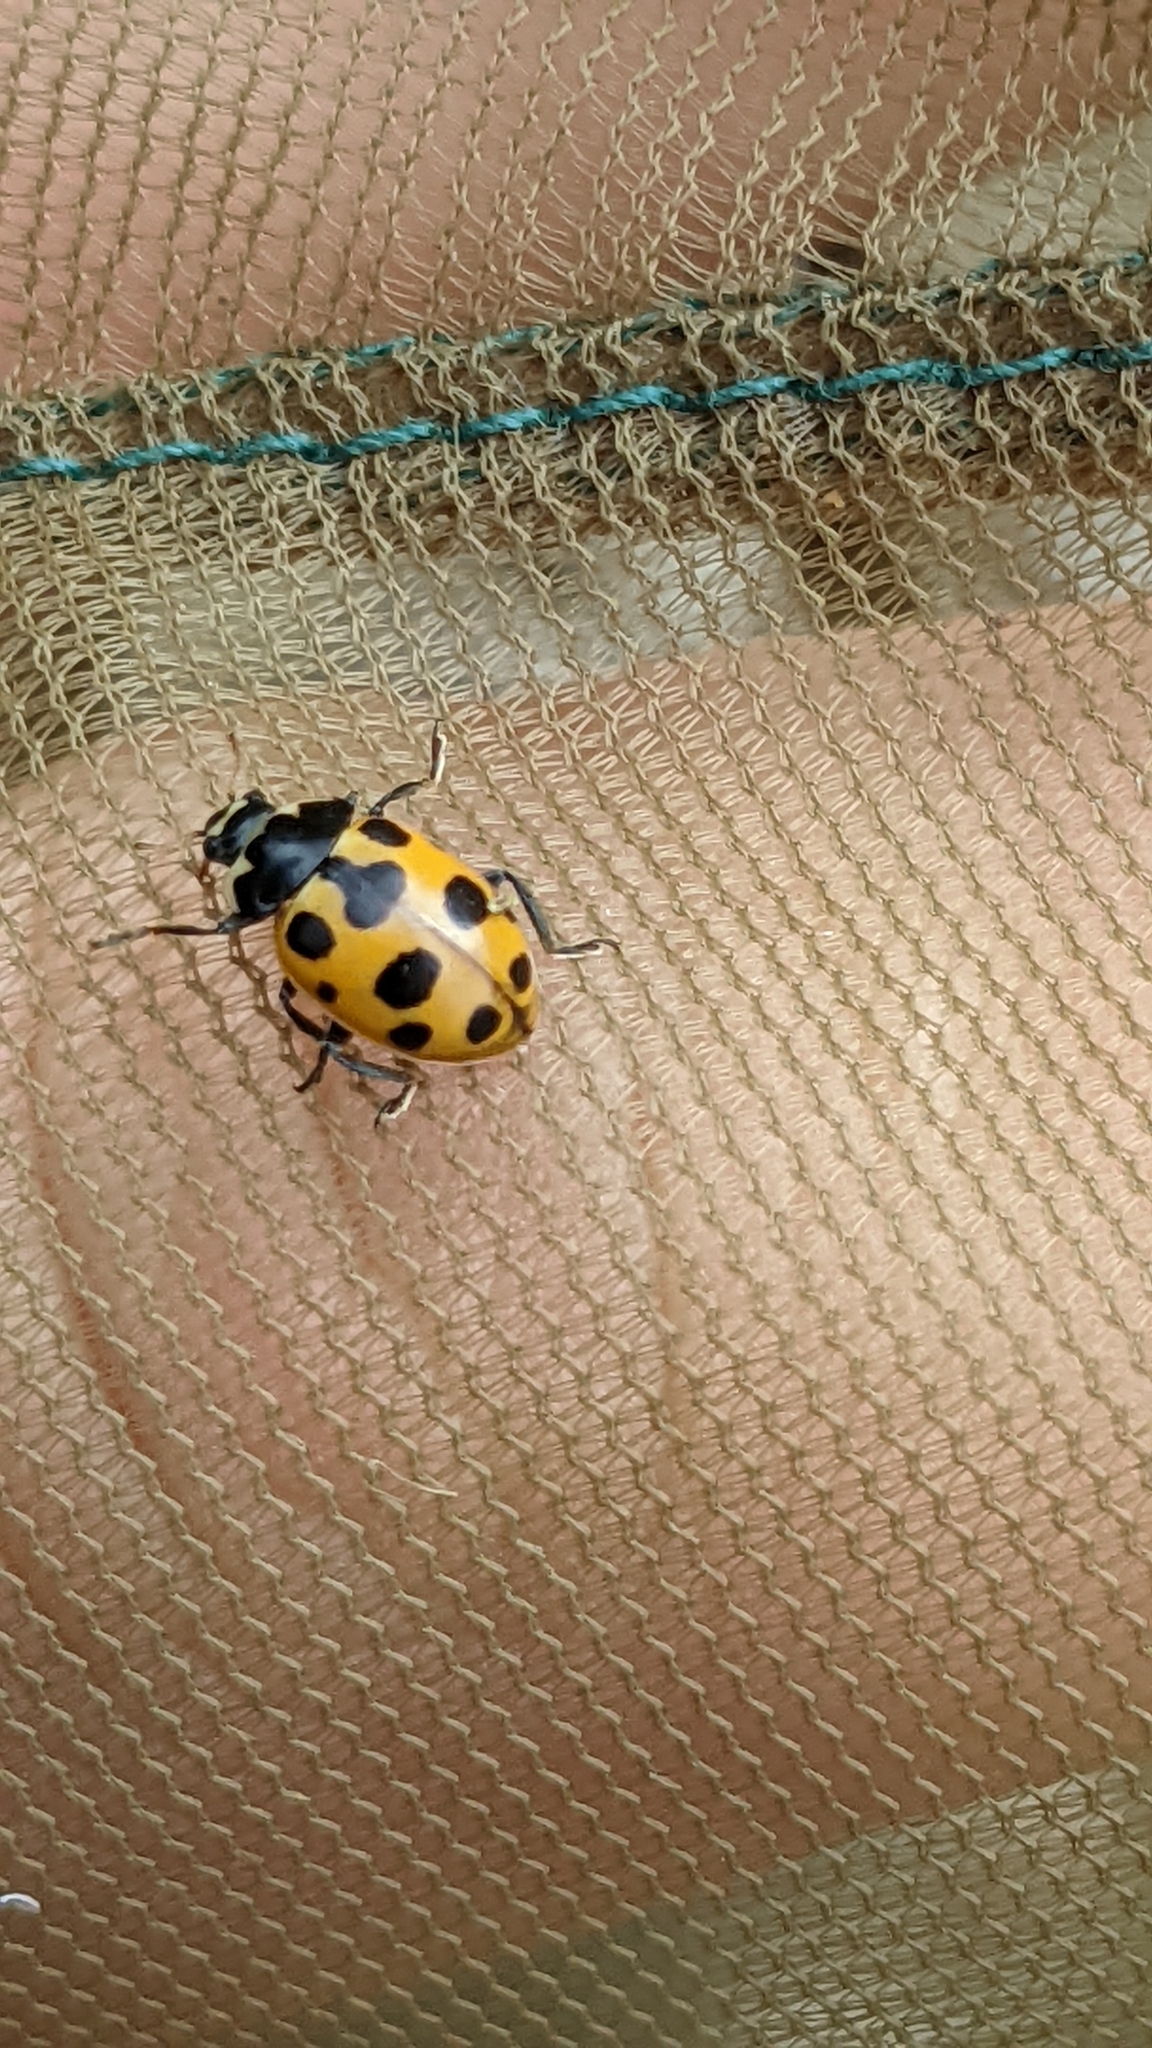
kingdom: Animalia
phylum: Arthropoda
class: Insecta
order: Coleoptera
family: Coccinellidae
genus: Ceratomegilla
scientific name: Ceratomegilla notata
